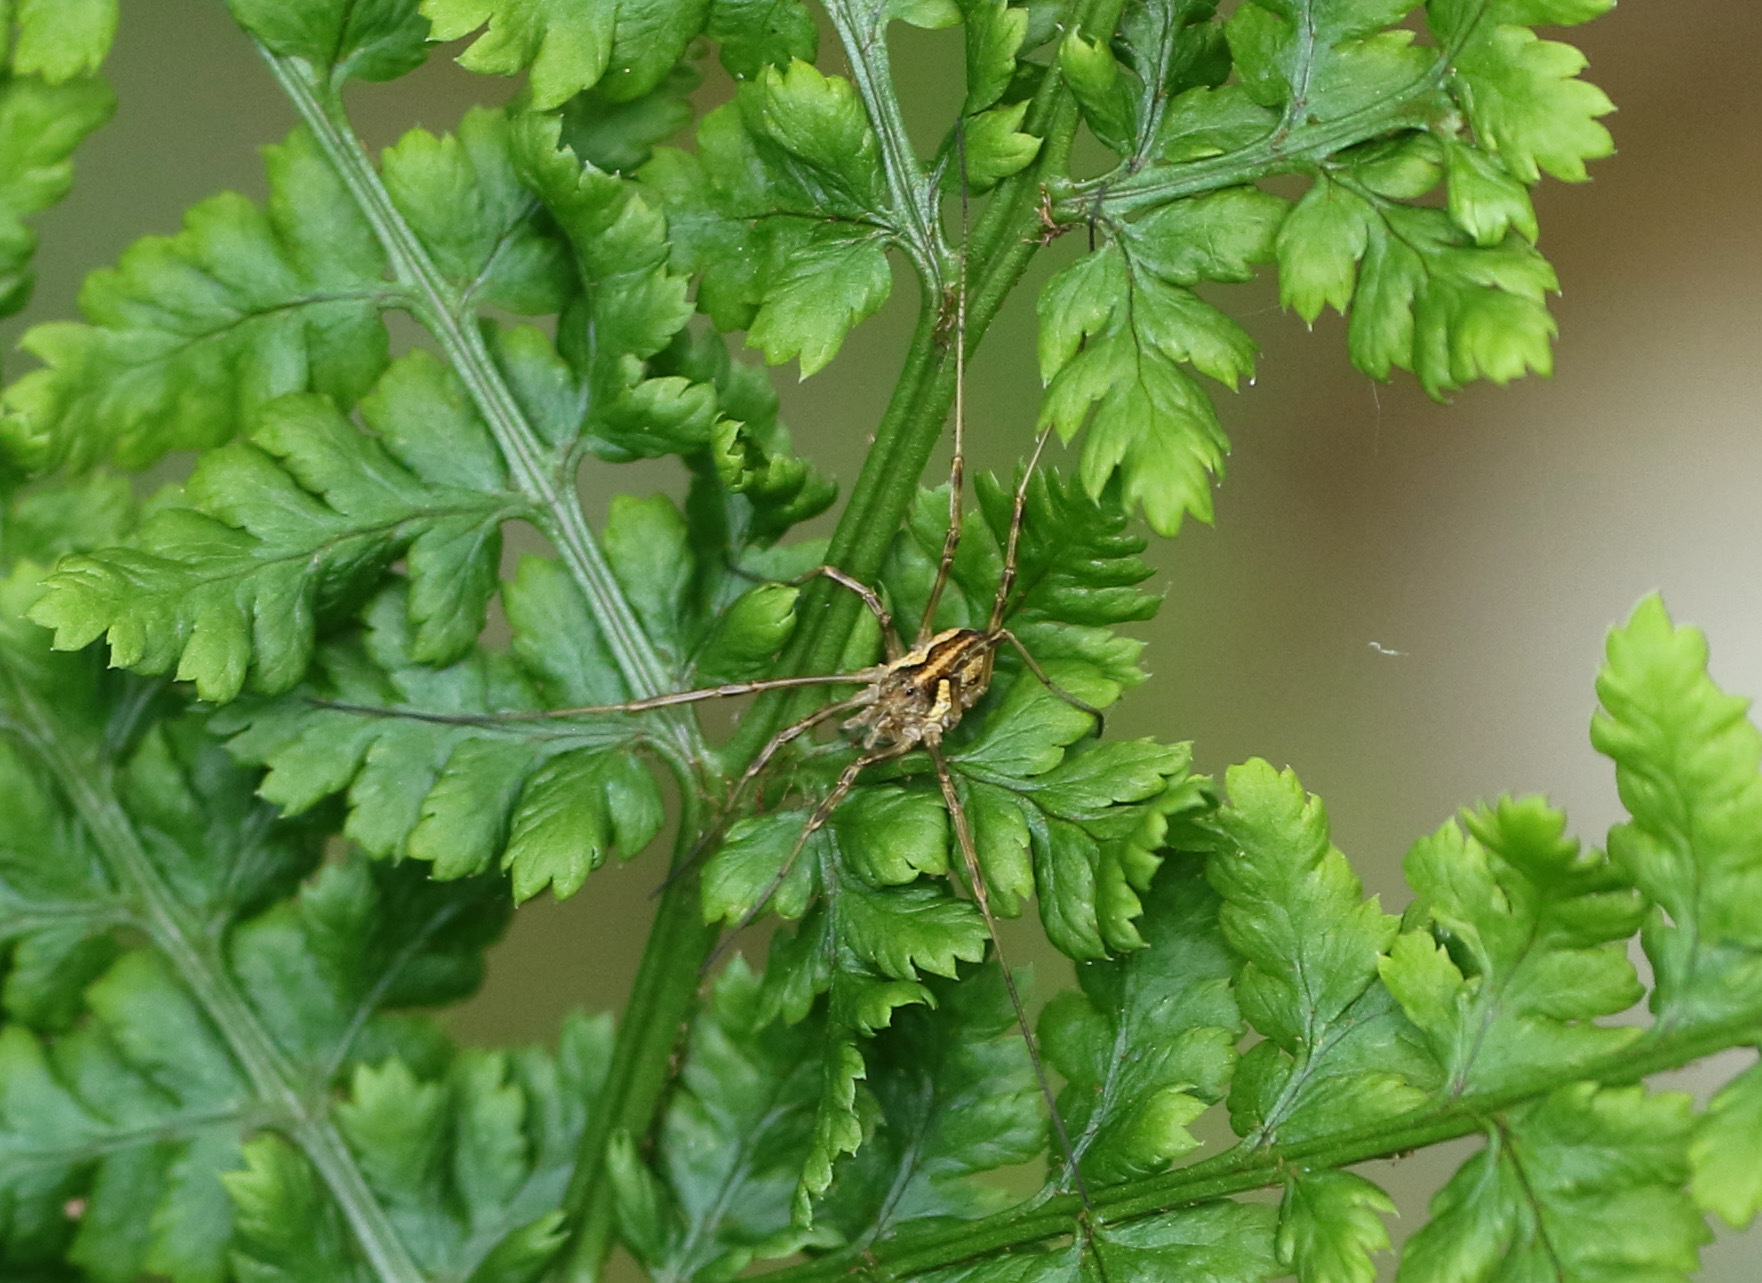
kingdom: Animalia
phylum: Arthropoda
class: Arachnida
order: Opiliones
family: Phalangiidae
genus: Mitopus
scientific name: Mitopus morio
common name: Saddleback harvestman
